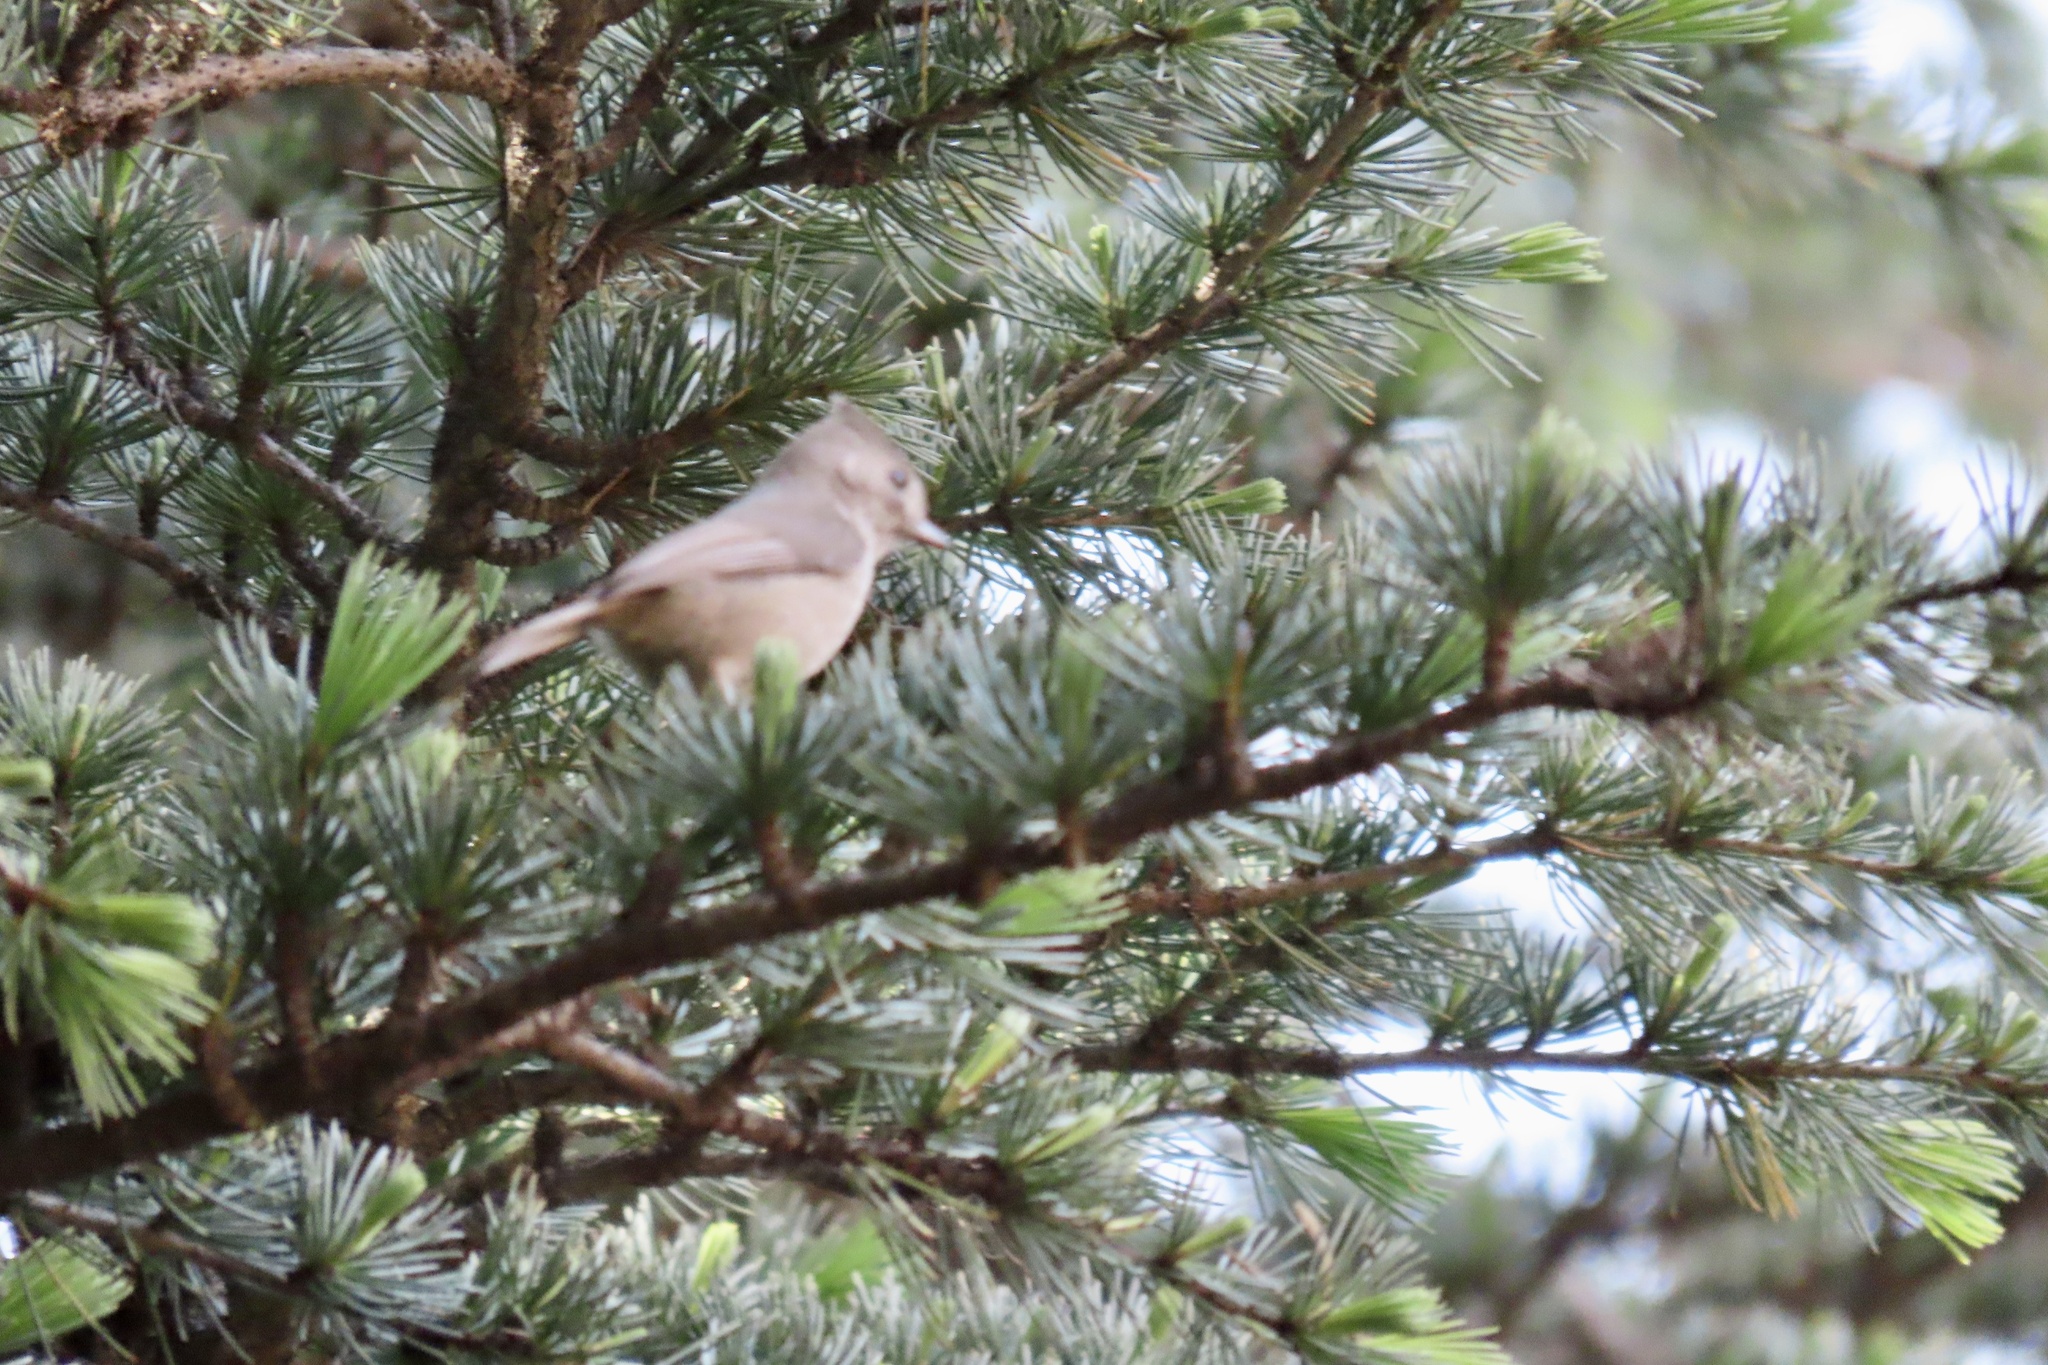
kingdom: Animalia
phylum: Chordata
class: Aves
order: Passeriformes
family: Paridae
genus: Baeolophus
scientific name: Baeolophus inornatus
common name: Oak titmouse
